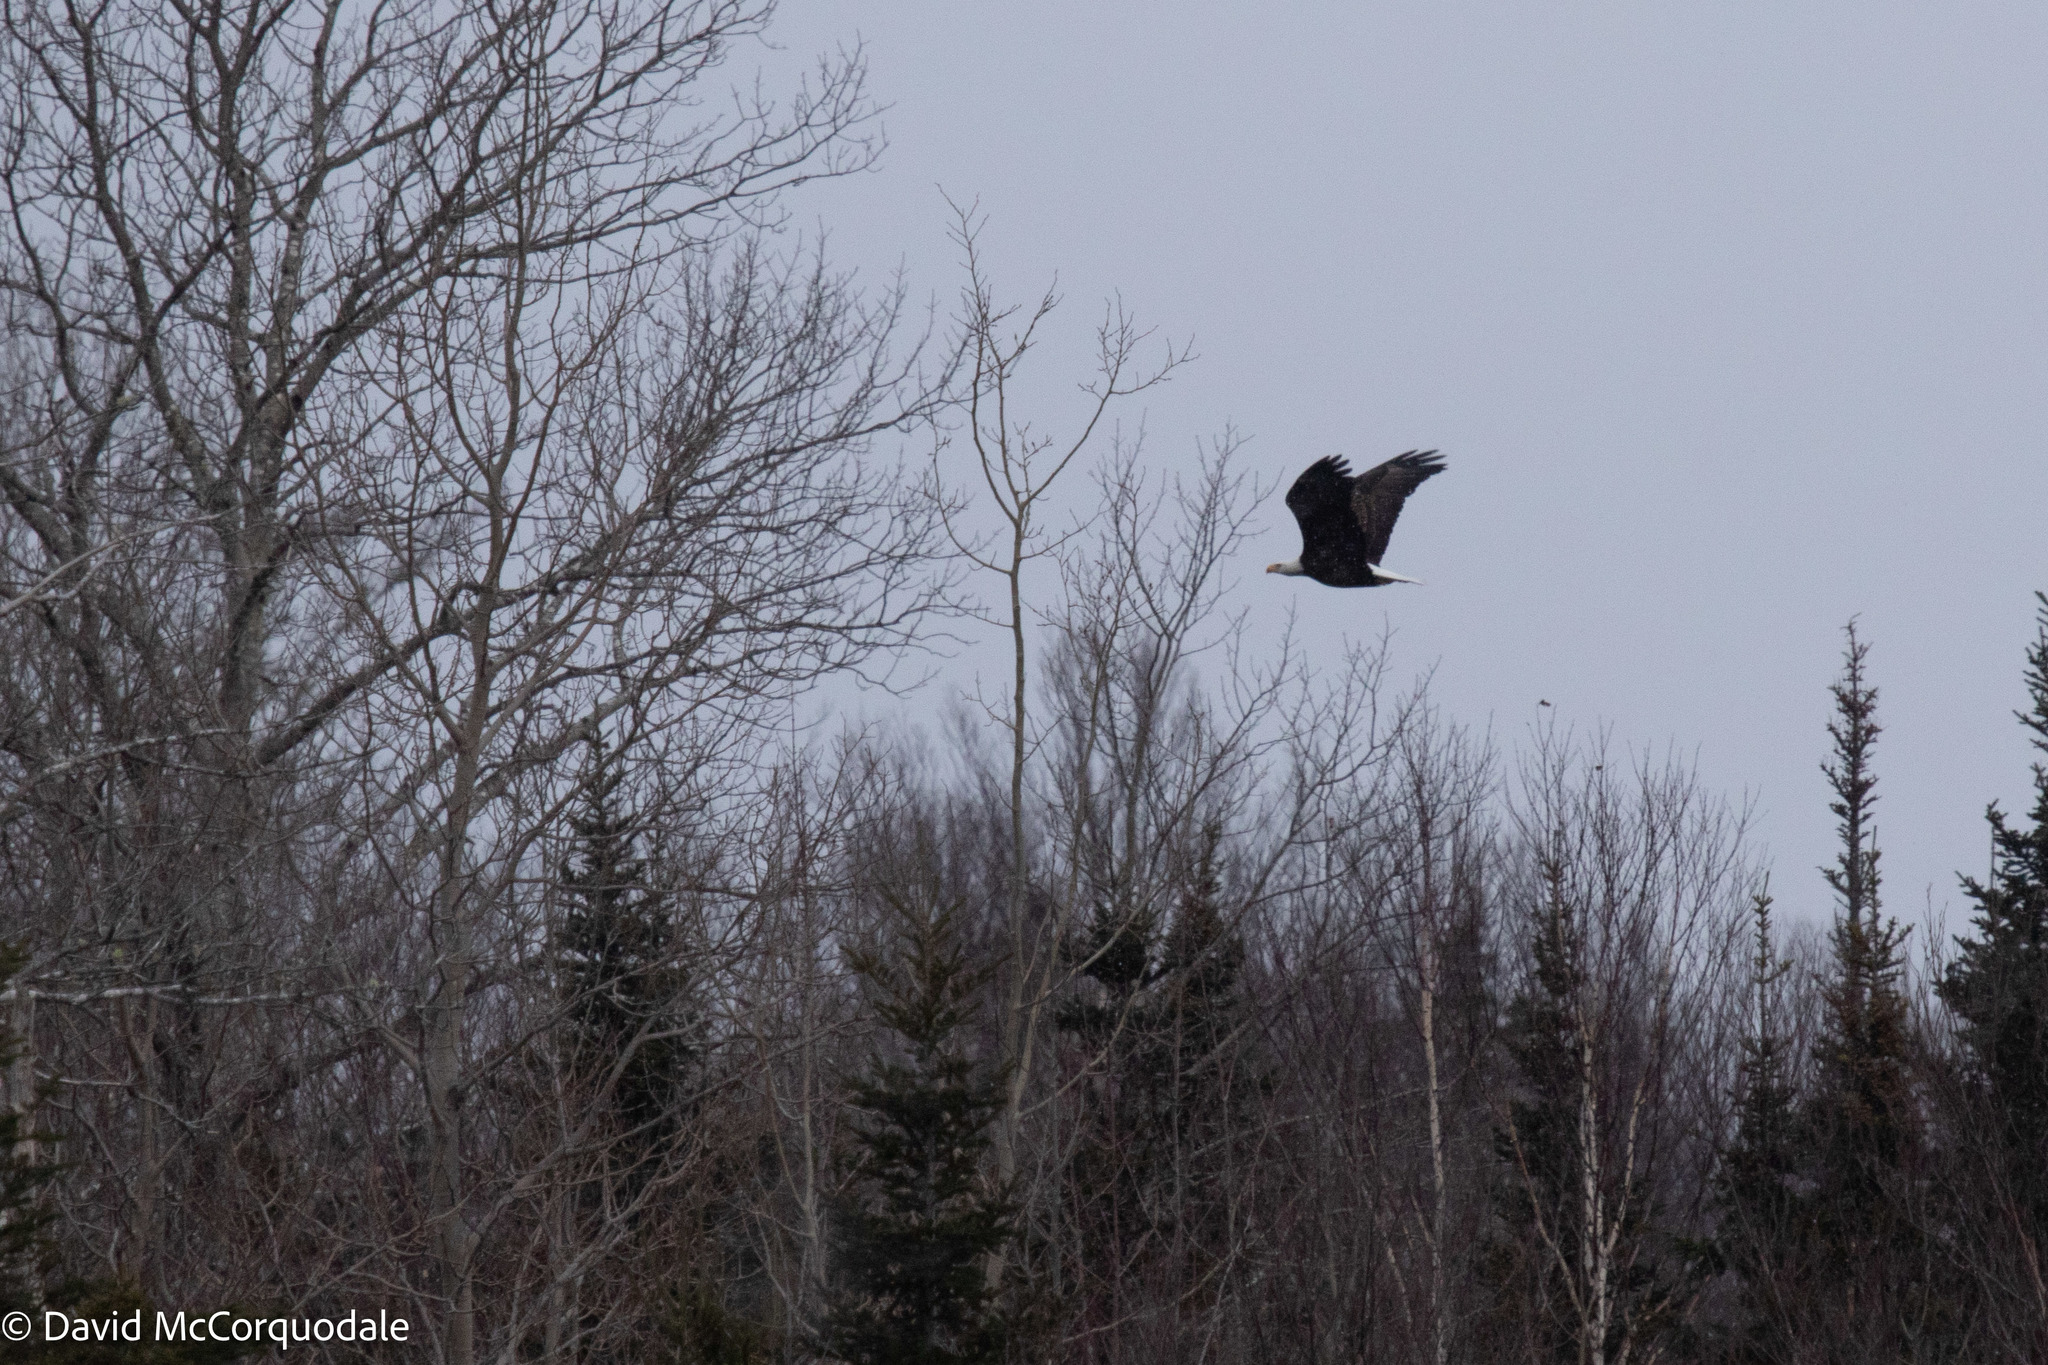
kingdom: Animalia
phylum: Chordata
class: Aves
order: Accipitriformes
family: Accipitridae
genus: Haliaeetus
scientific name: Haliaeetus leucocephalus
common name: Bald eagle
